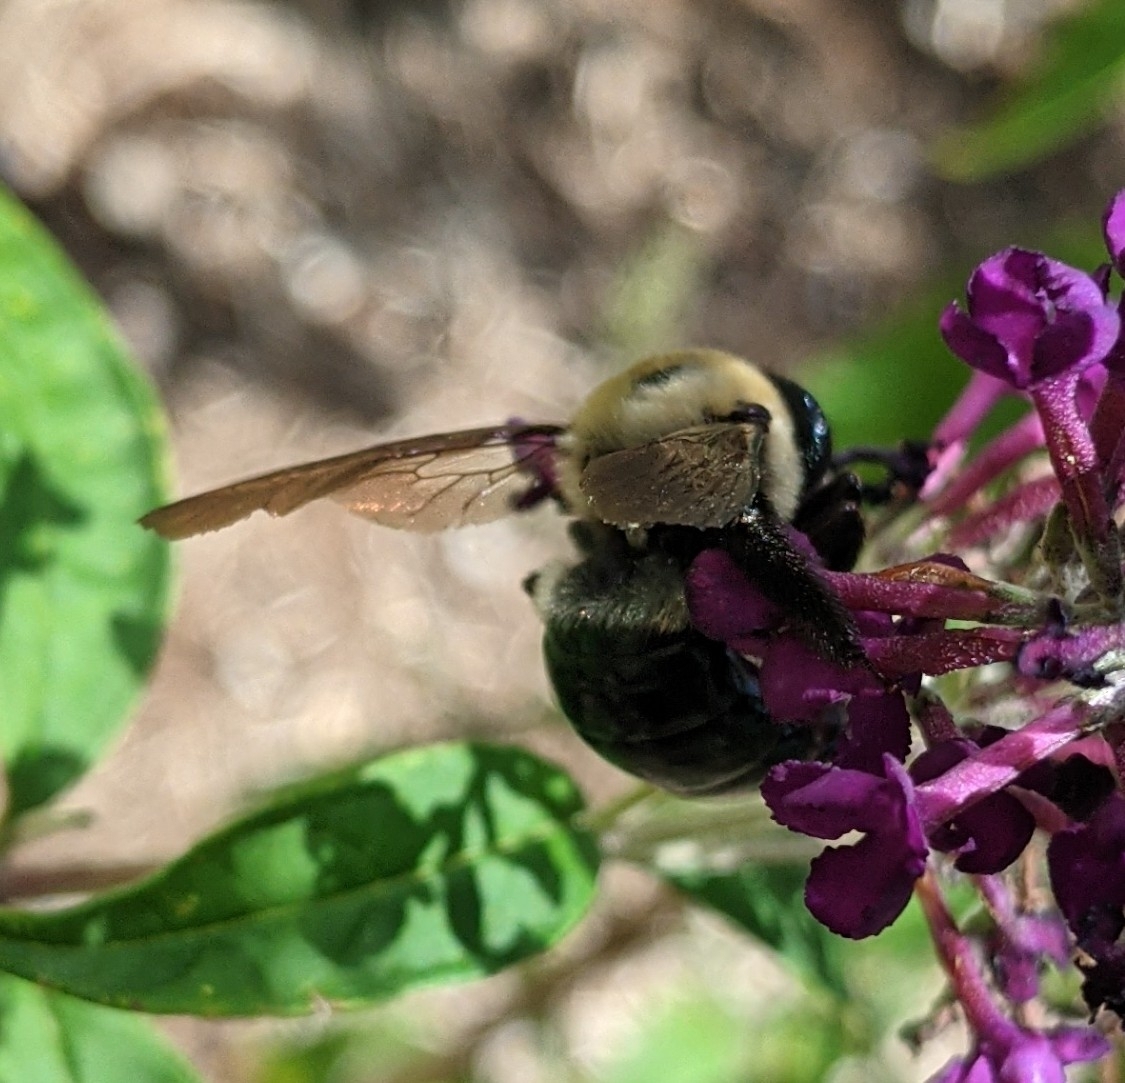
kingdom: Animalia
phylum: Arthropoda
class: Insecta
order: Hymenoptera
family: Apidae
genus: Xylocopa
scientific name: Xylocopa virginica
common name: Carpenter bee
